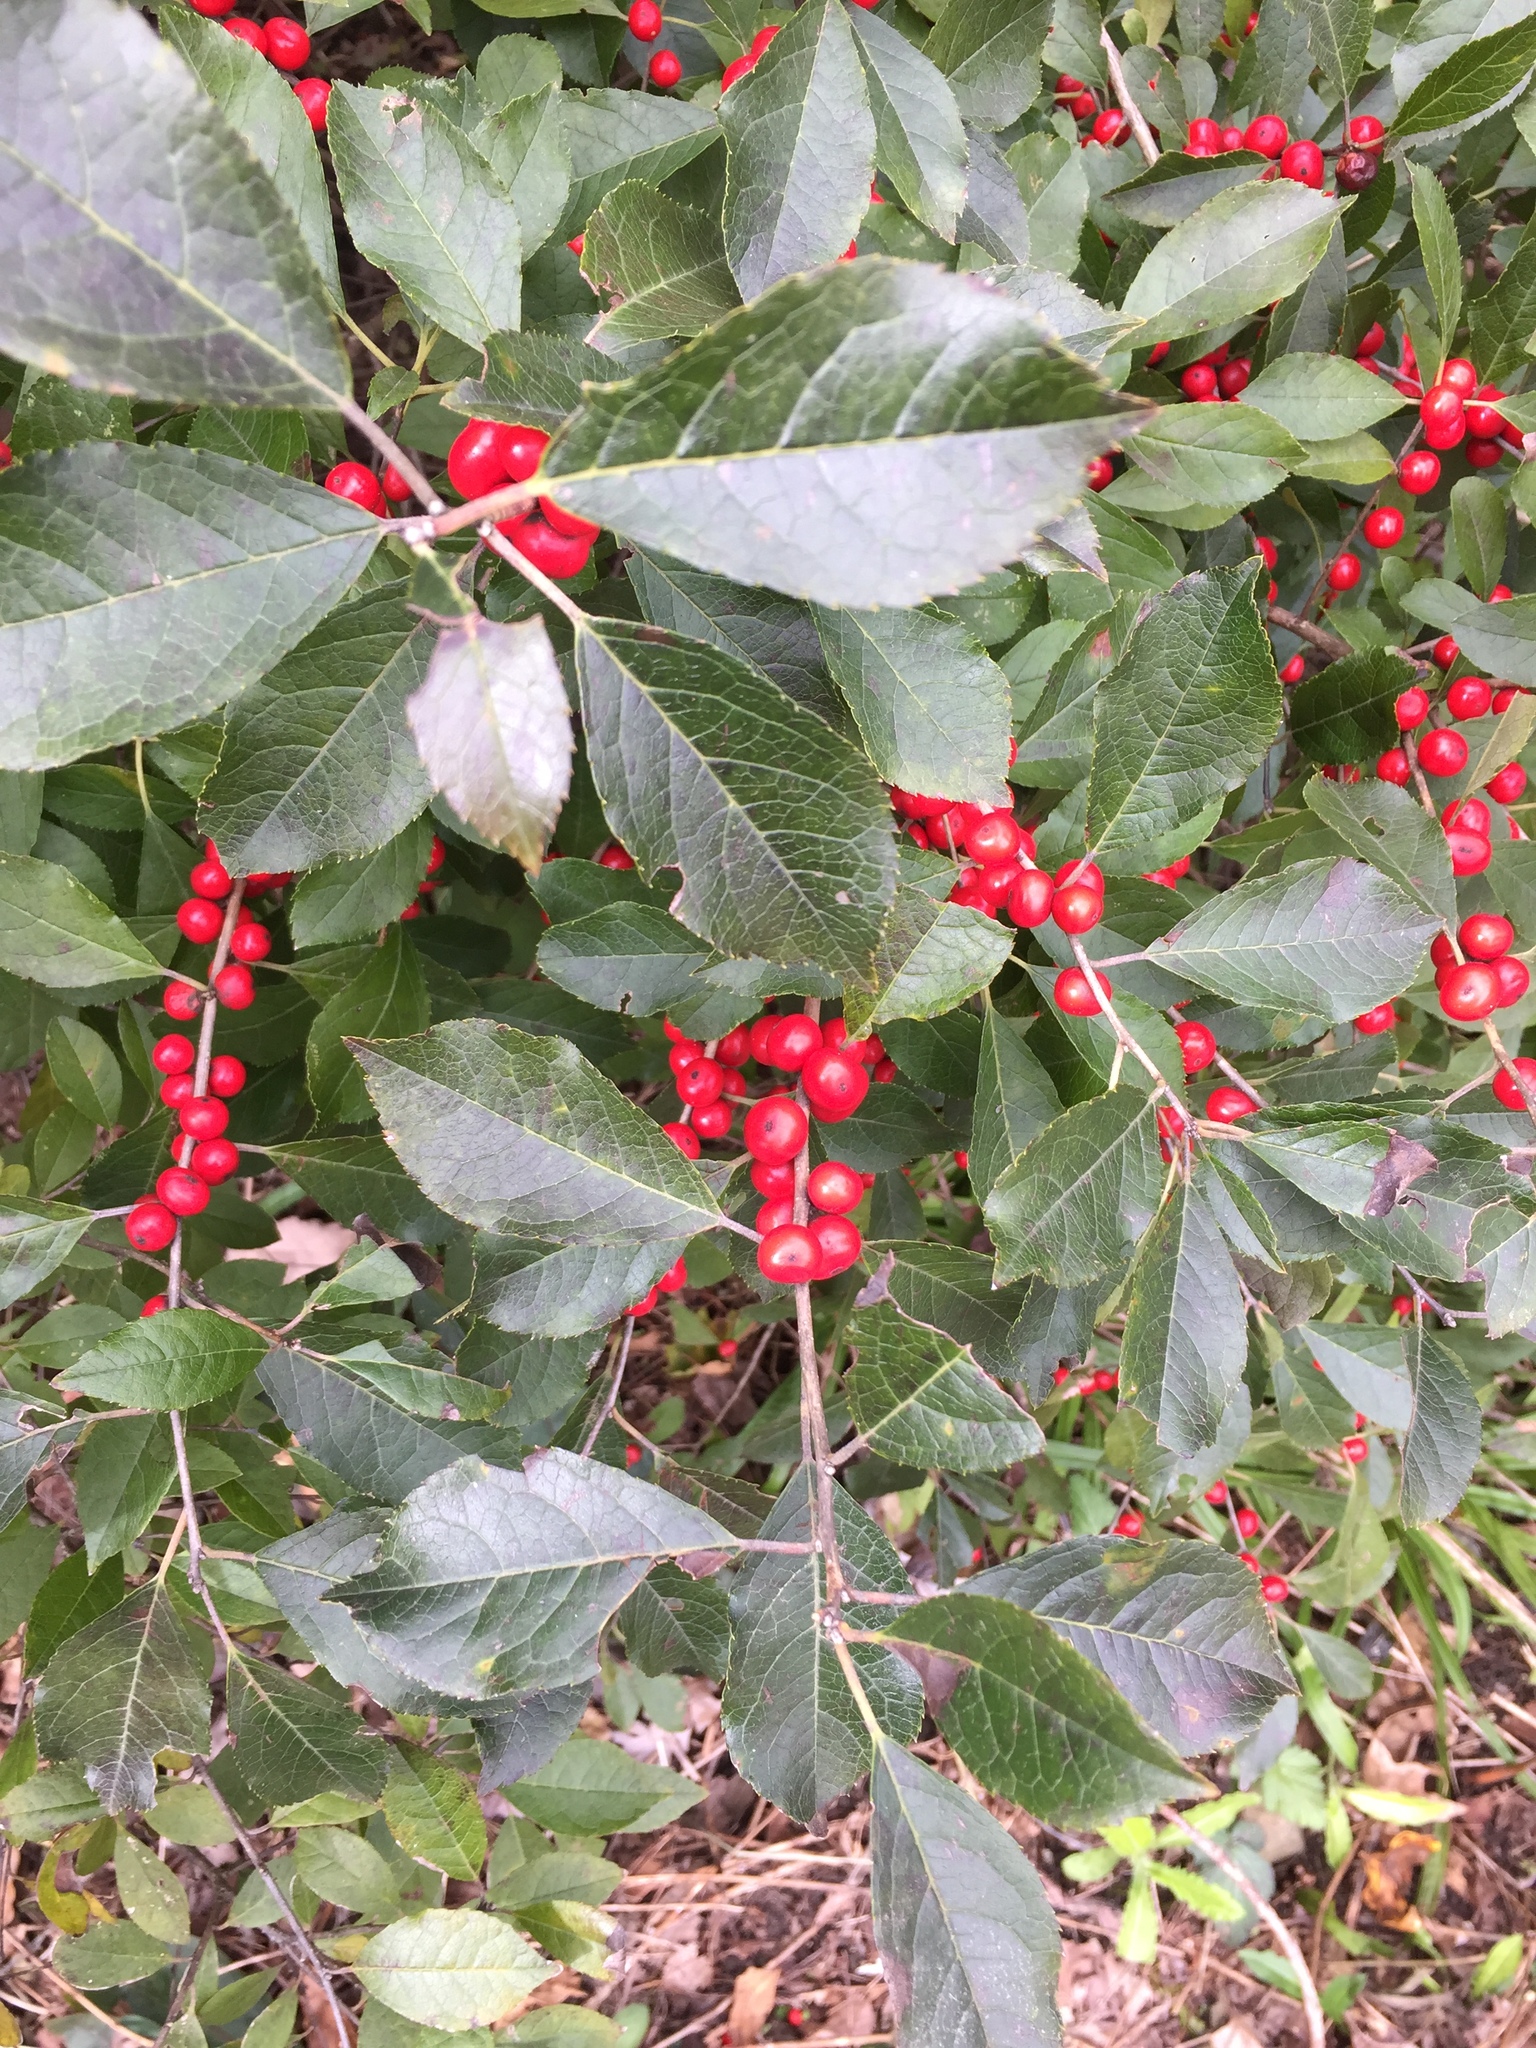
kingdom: Plantae
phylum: Tracheophyta
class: Magnoliopsida
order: Aquifoliales
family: Aquifoliaceae
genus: Ilex
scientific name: Ilex verticillata
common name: Virginia winterberry
